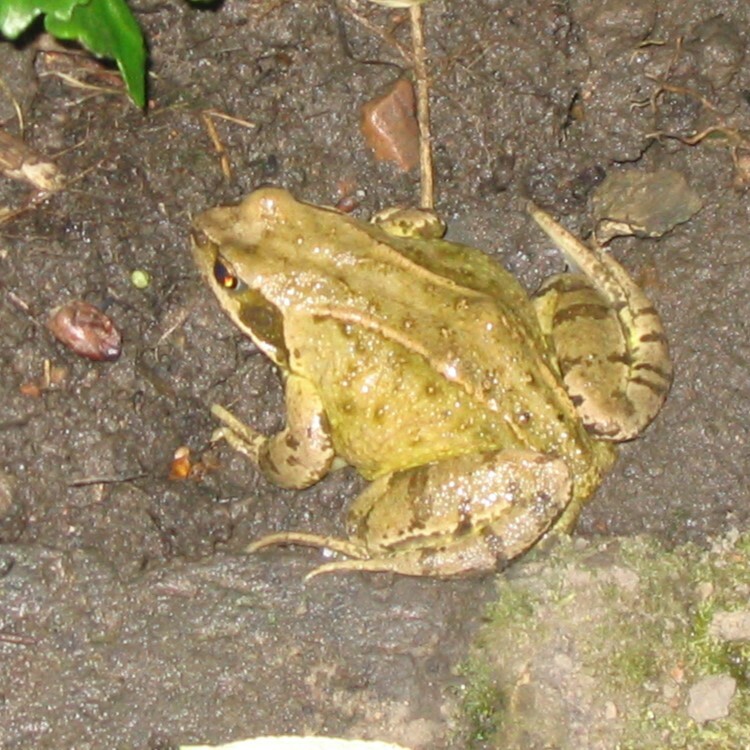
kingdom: Animalia
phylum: Chordata
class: Amphibia
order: Anura
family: Ranidae
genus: Rana
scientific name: Rana temporaria
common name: Common frog
